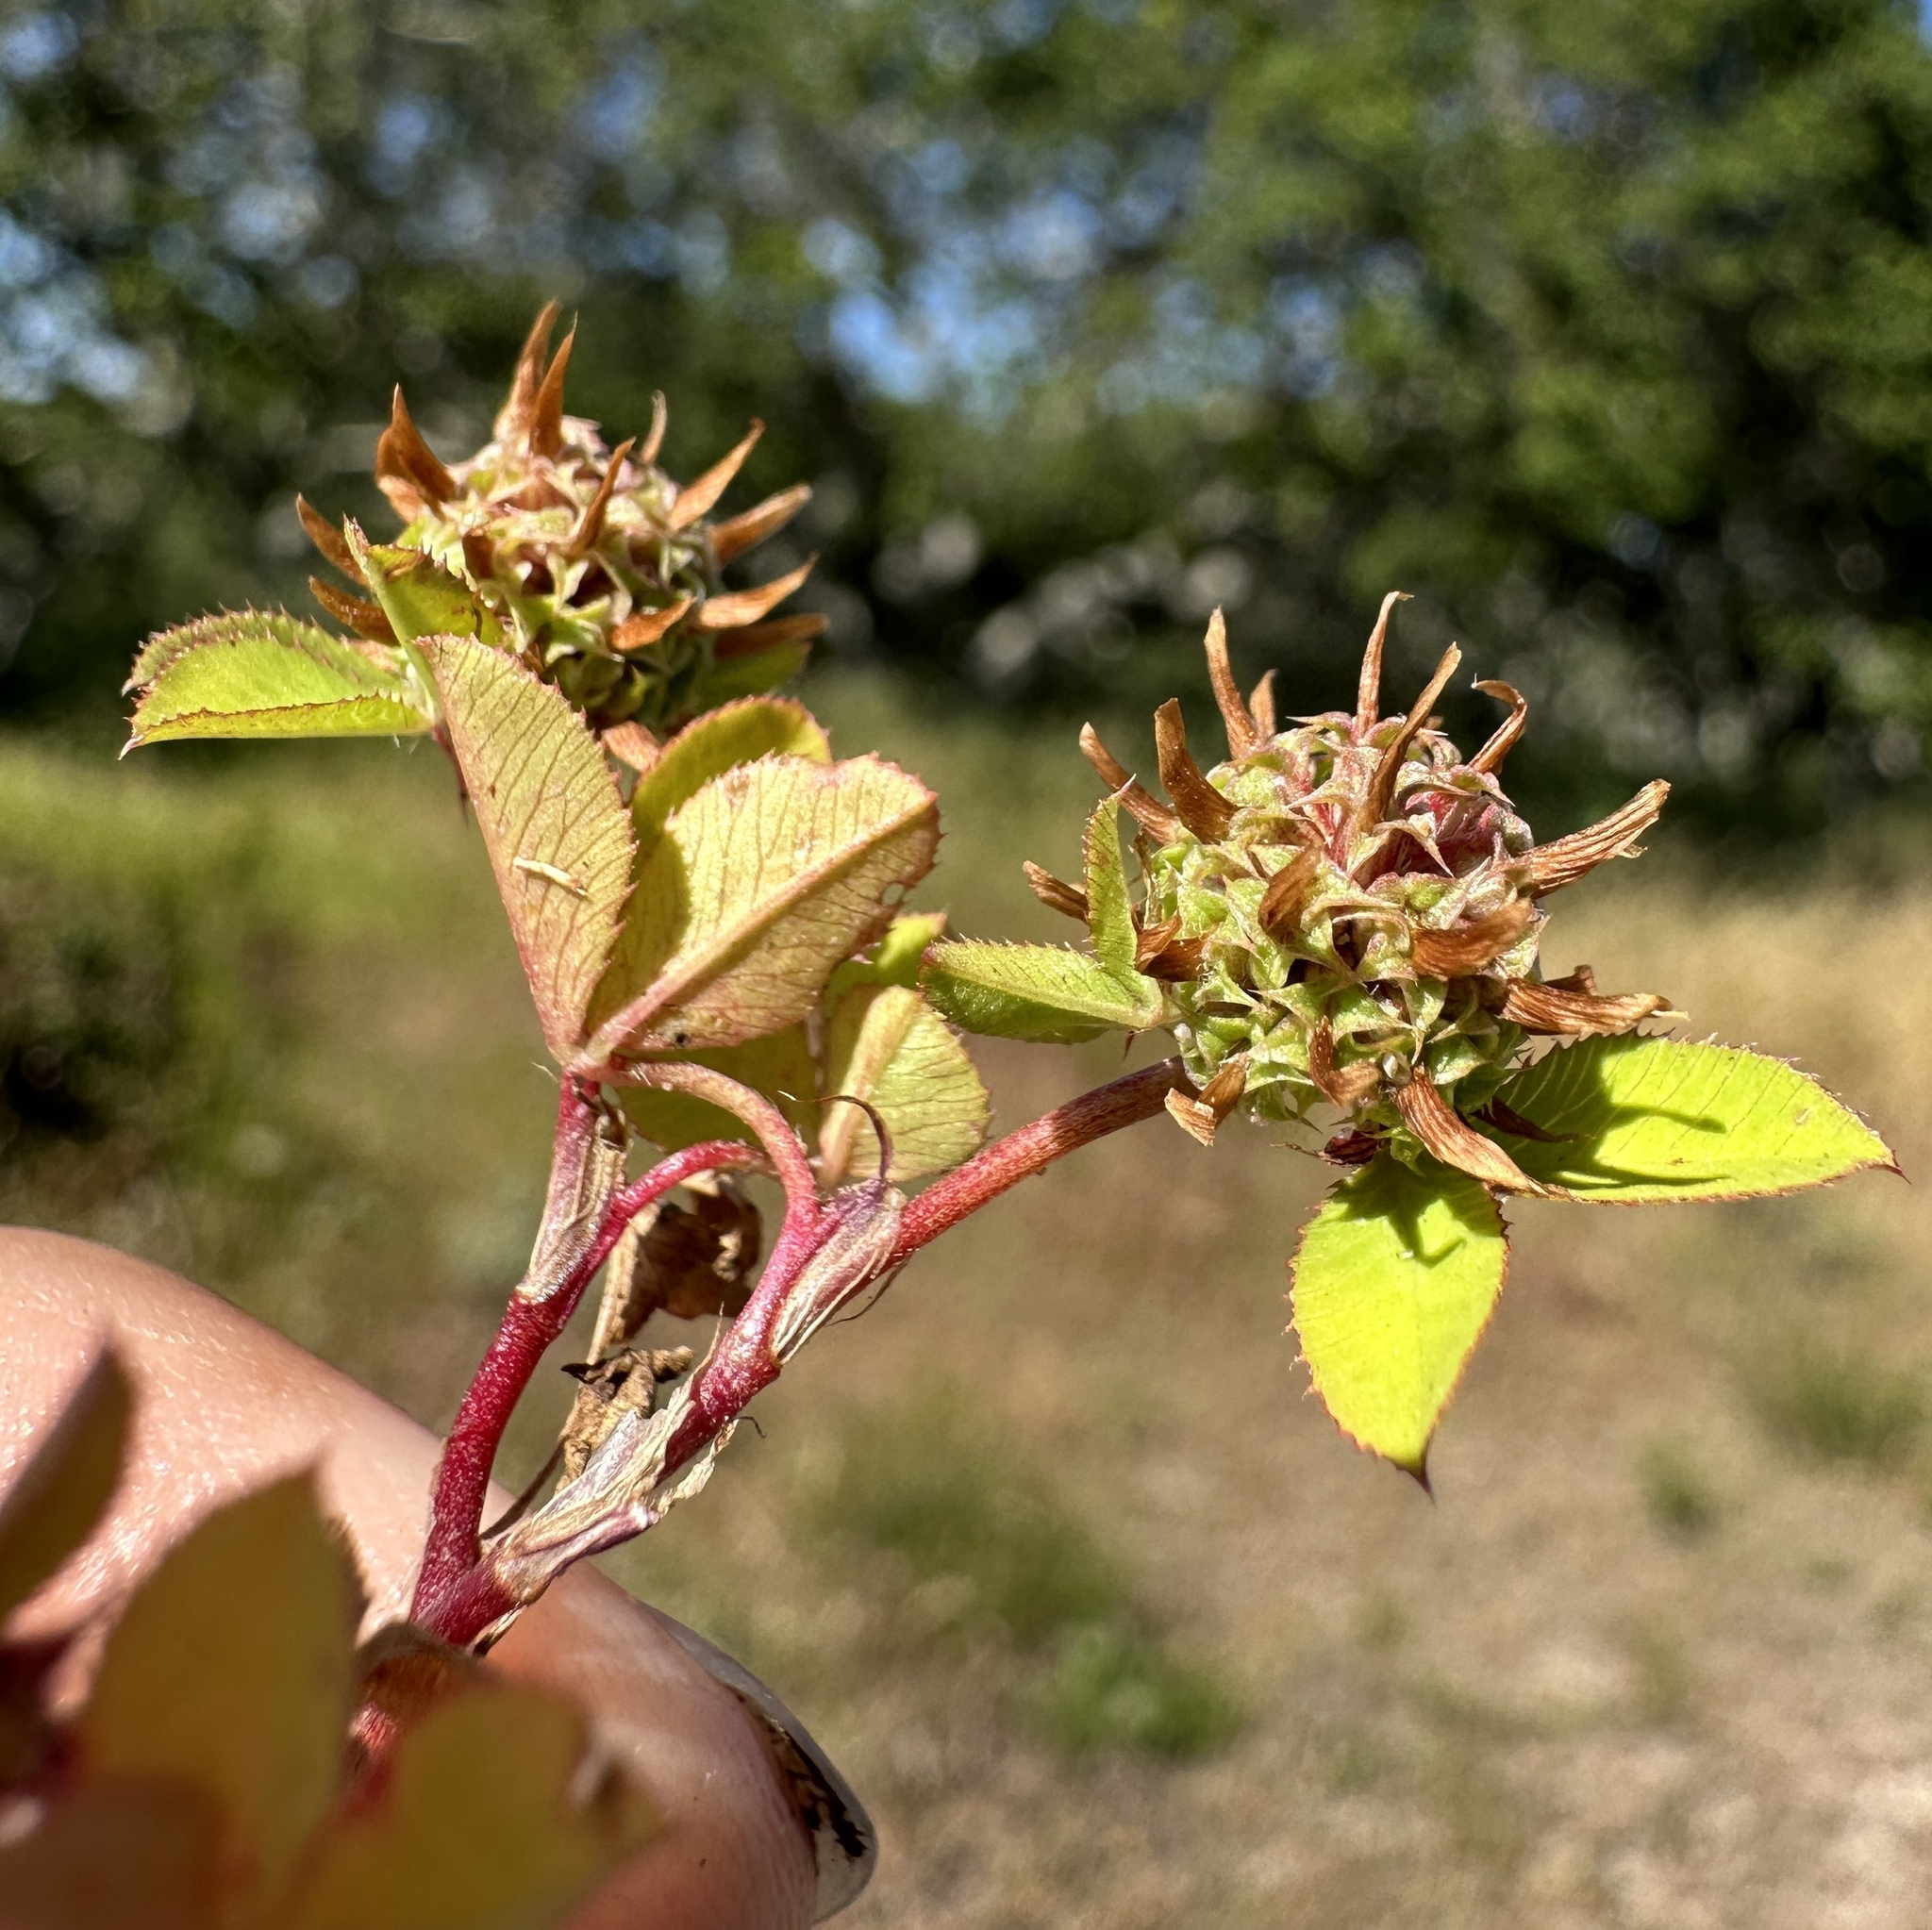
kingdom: Plantae
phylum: Tracheophyta
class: Magnoliopsida
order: Fabales
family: Fabaceae
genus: Trifolium
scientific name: Trifolium glomeratum
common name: Clustered clover
